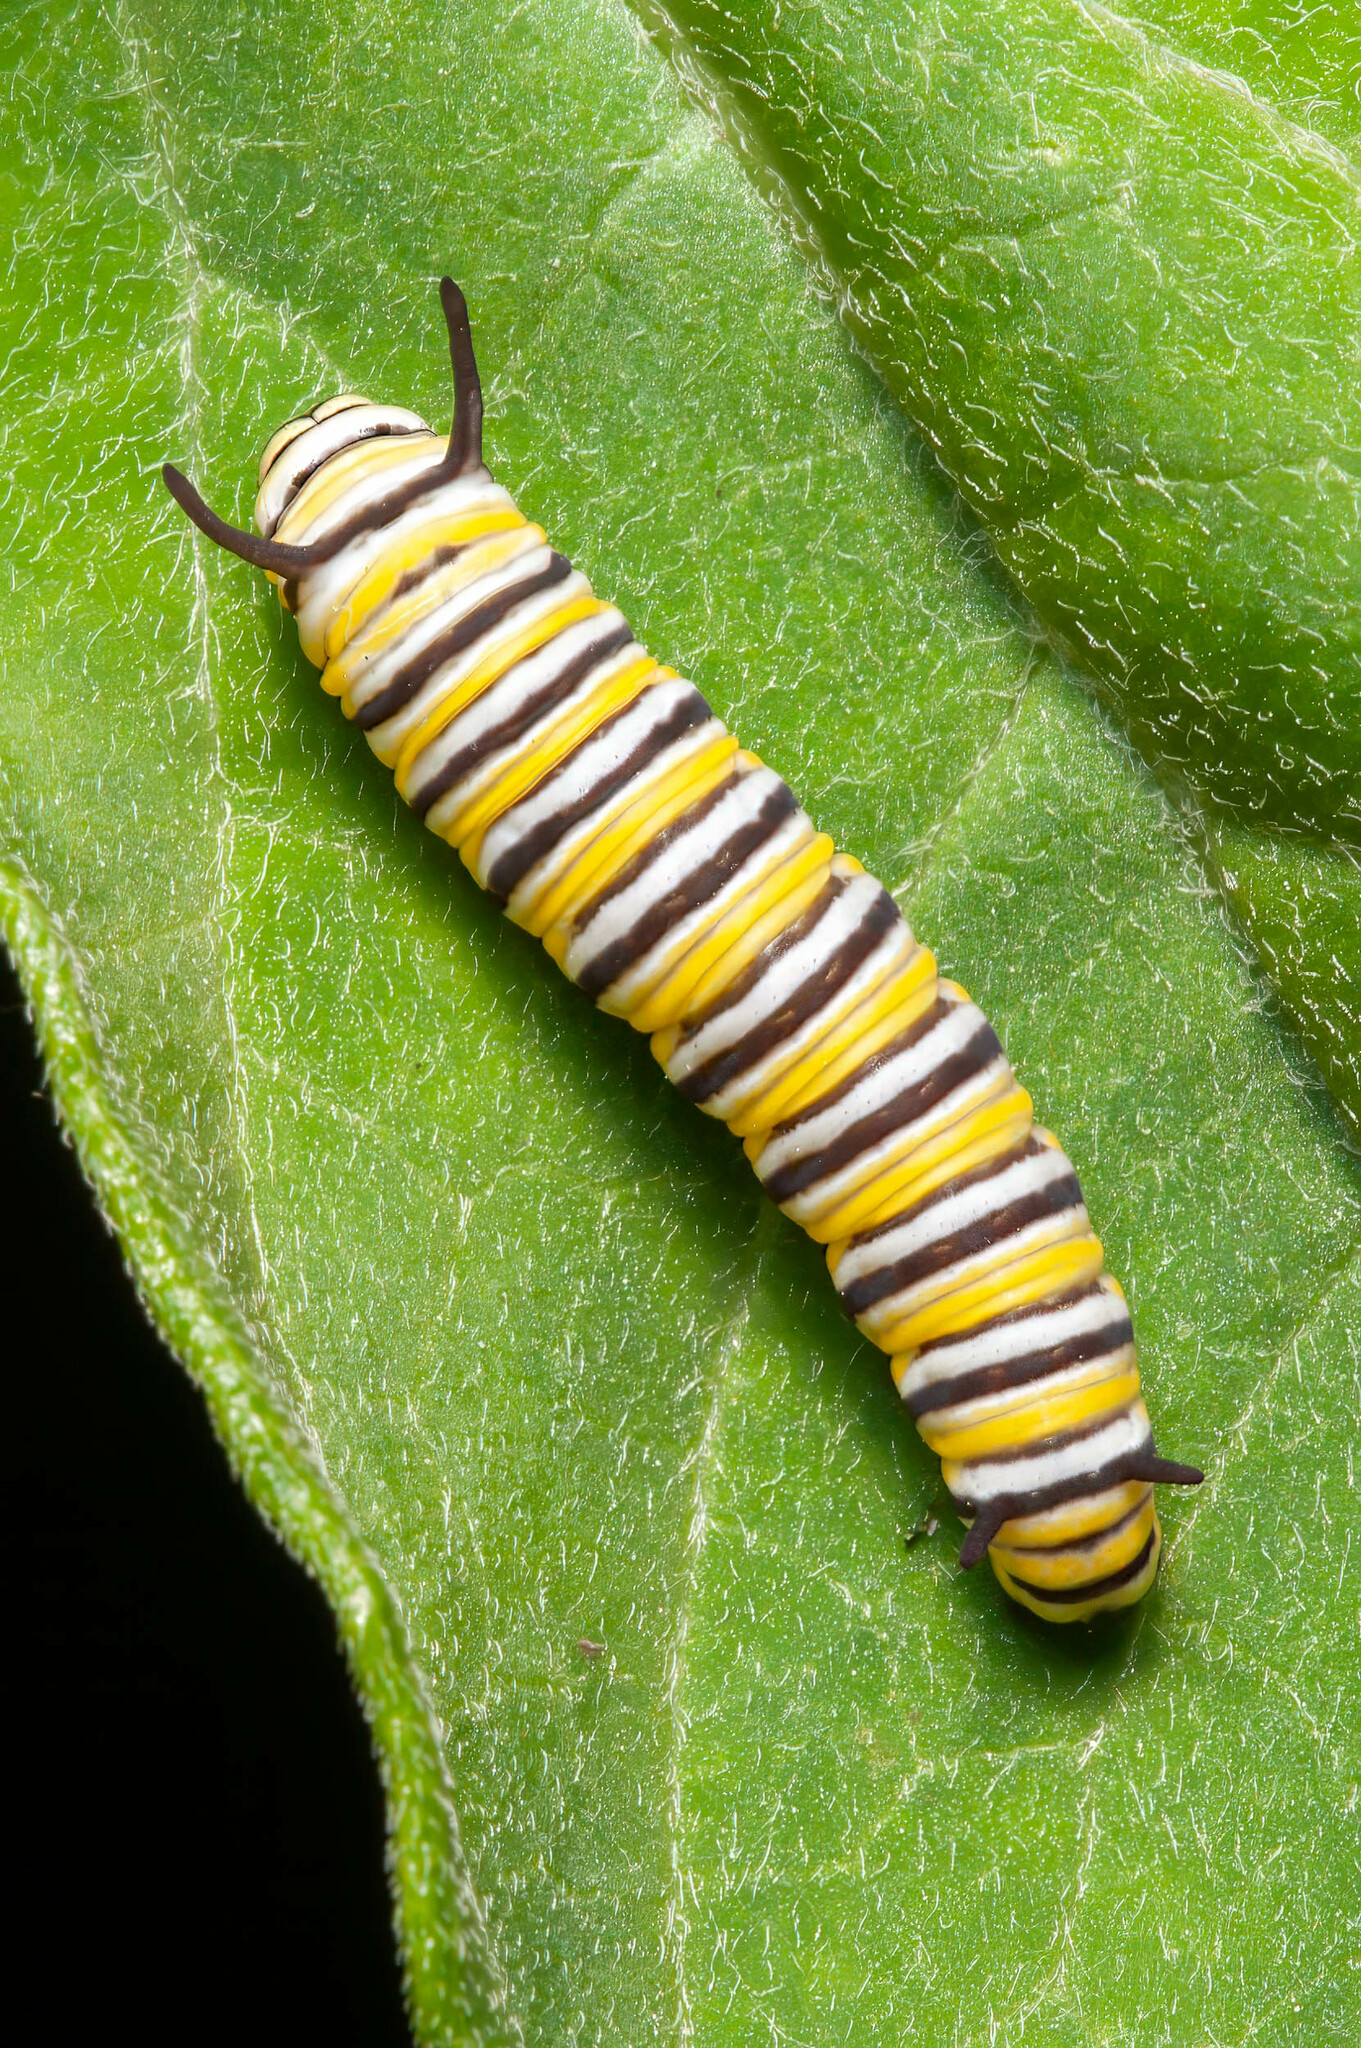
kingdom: Animalia
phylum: Arthropoda
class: Insecta
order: Lepidoptera
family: Nymphalidae
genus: Danaus
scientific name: Danaus plexippus
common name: Monarch
